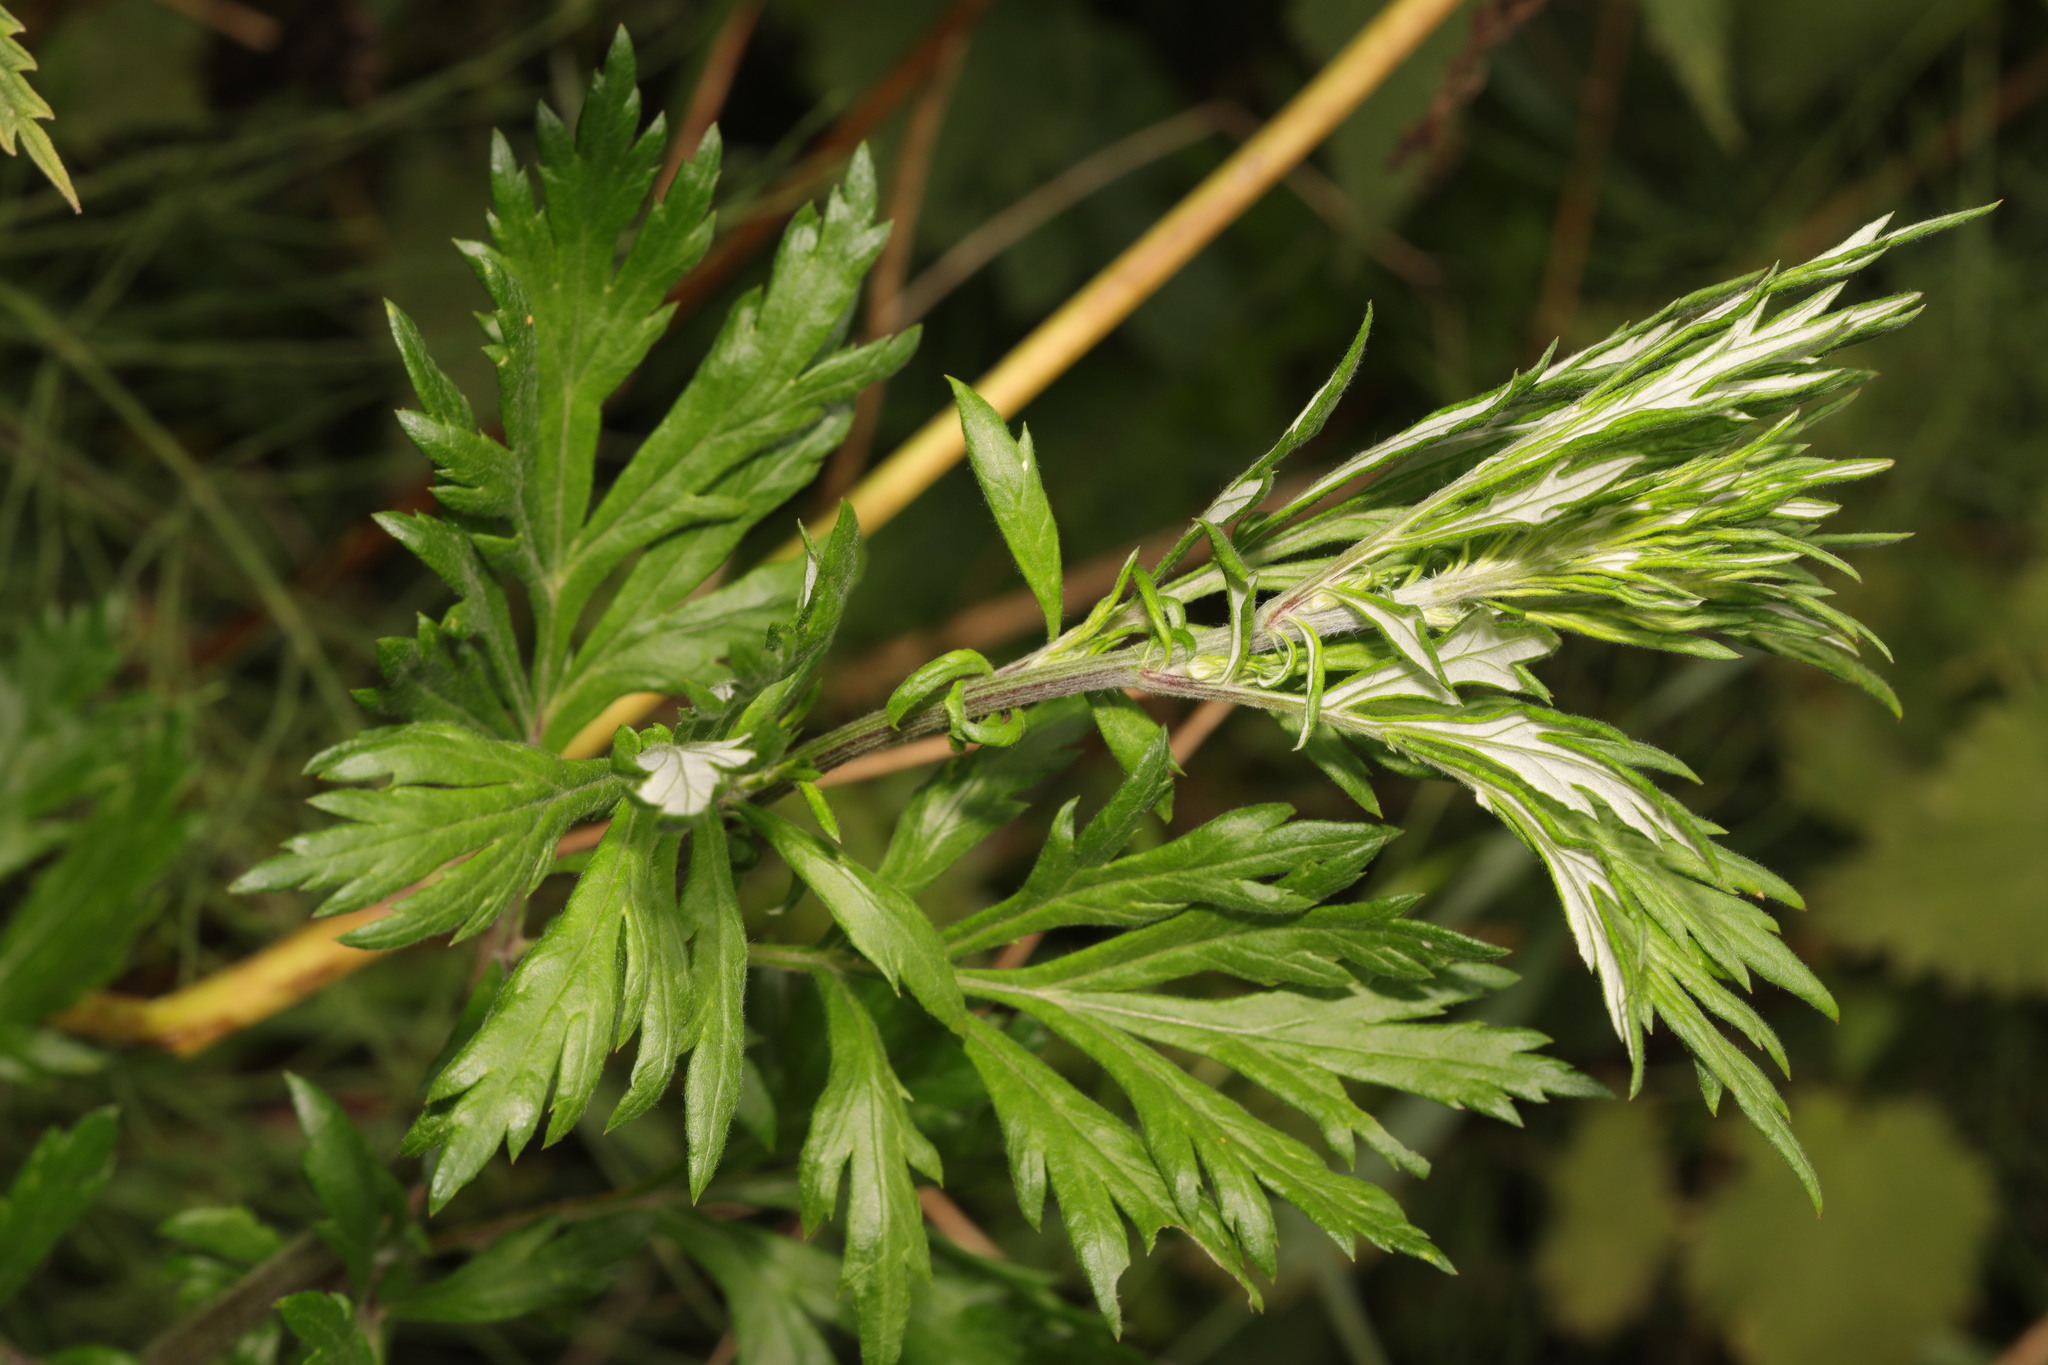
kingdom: Plantae
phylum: Tracheophyta
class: Magnoliopsida
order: Asterales
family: Asteraceae
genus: Artemisia
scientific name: Artemisia vulgaris
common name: Mugwort
